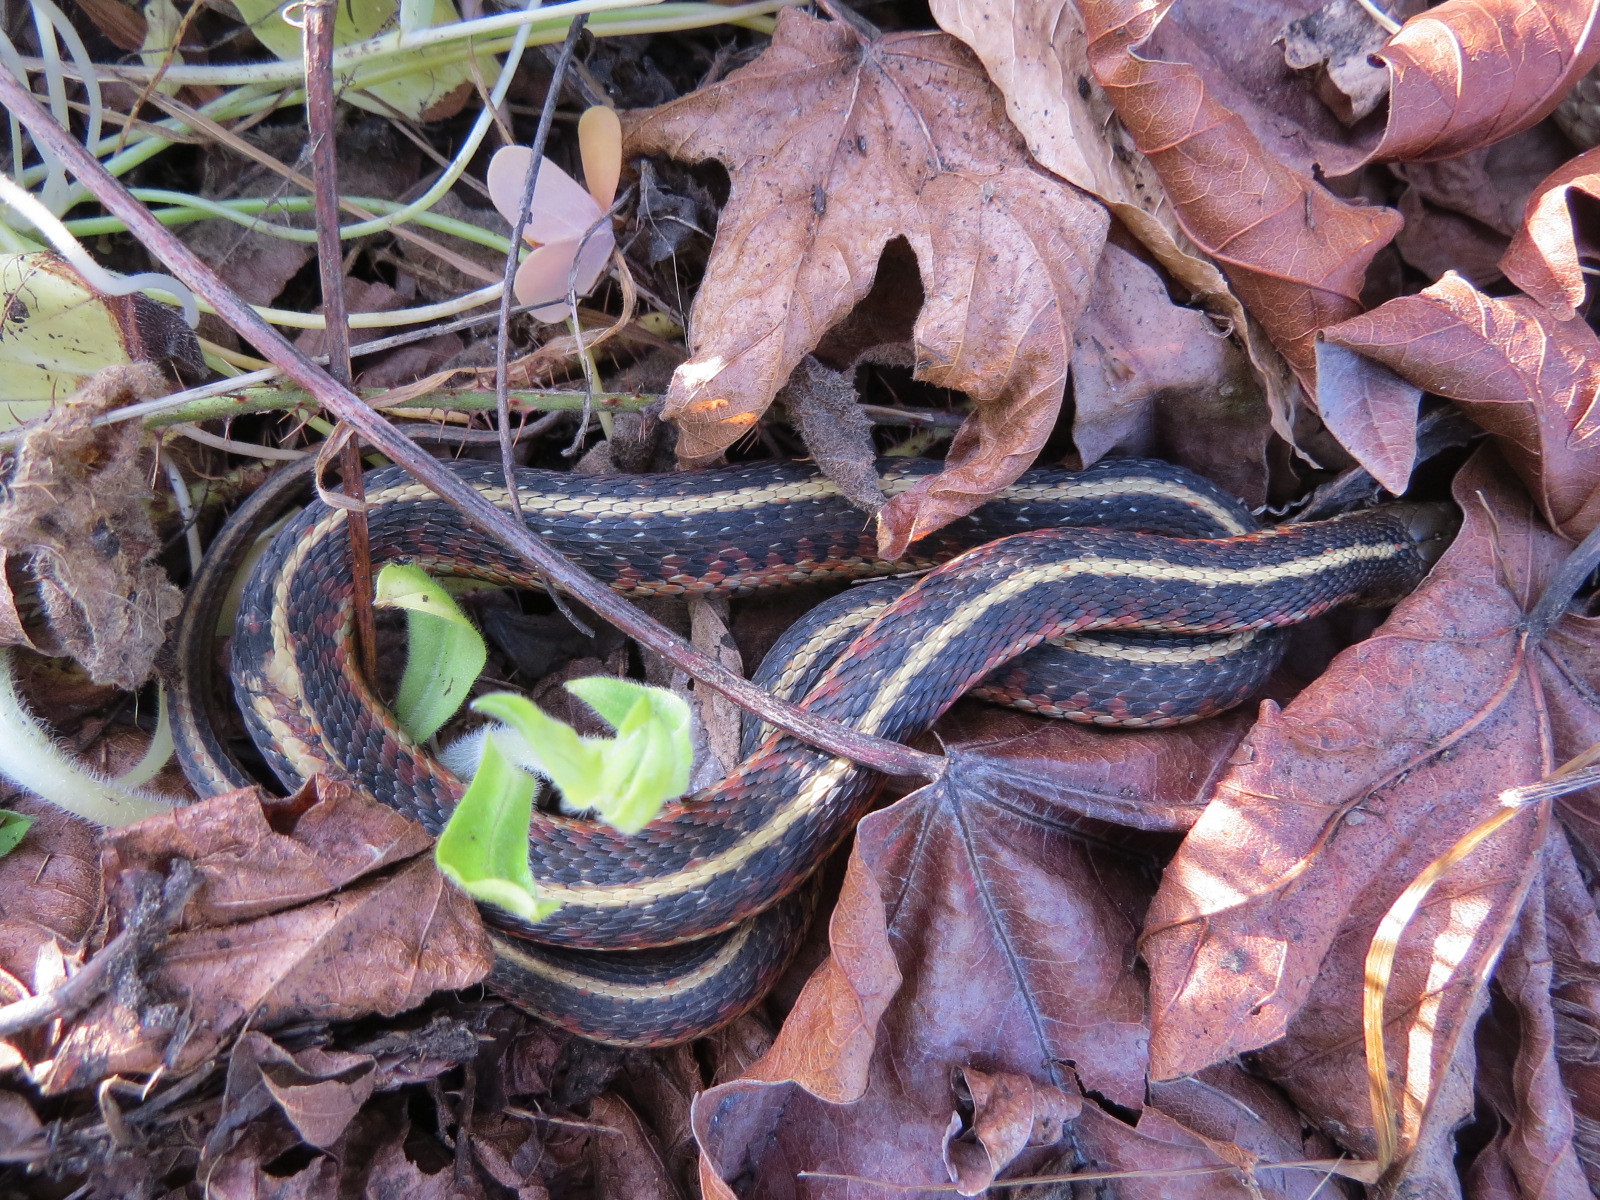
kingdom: Animalia
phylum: Chordata
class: Squamata
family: Colubridae
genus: Thamnophis
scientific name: Thamnophis elegans
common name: Western terrestrial garter snake
